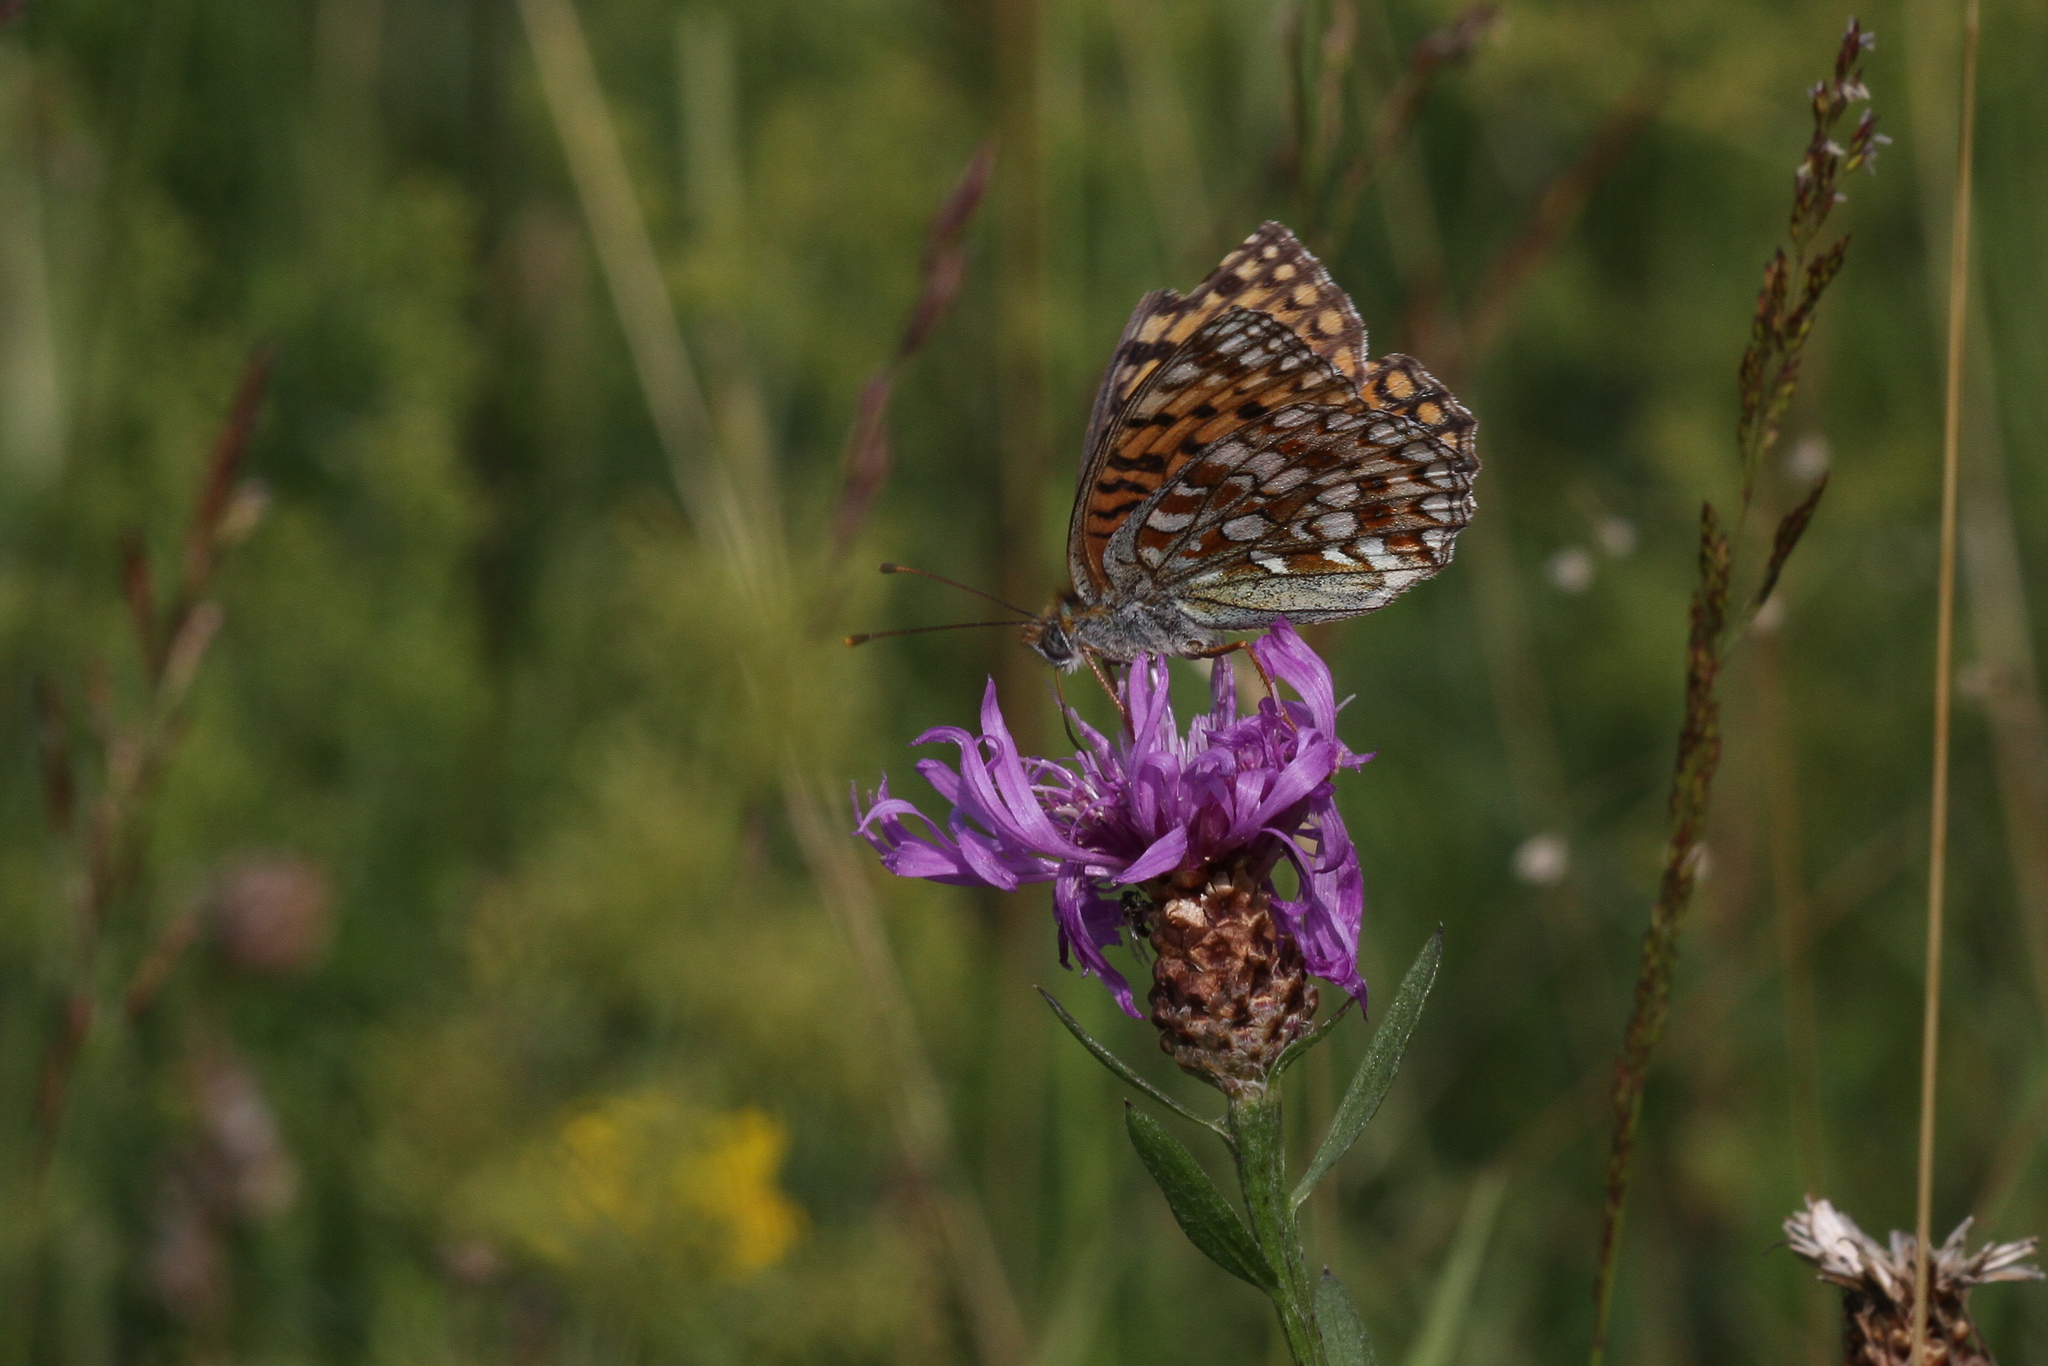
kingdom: Animalia
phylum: Arthropoda
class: Insecta
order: Lepidoptera
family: Nymphalidae
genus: Fabriciana
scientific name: Fabriciana adippe
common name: High brown fritillary
